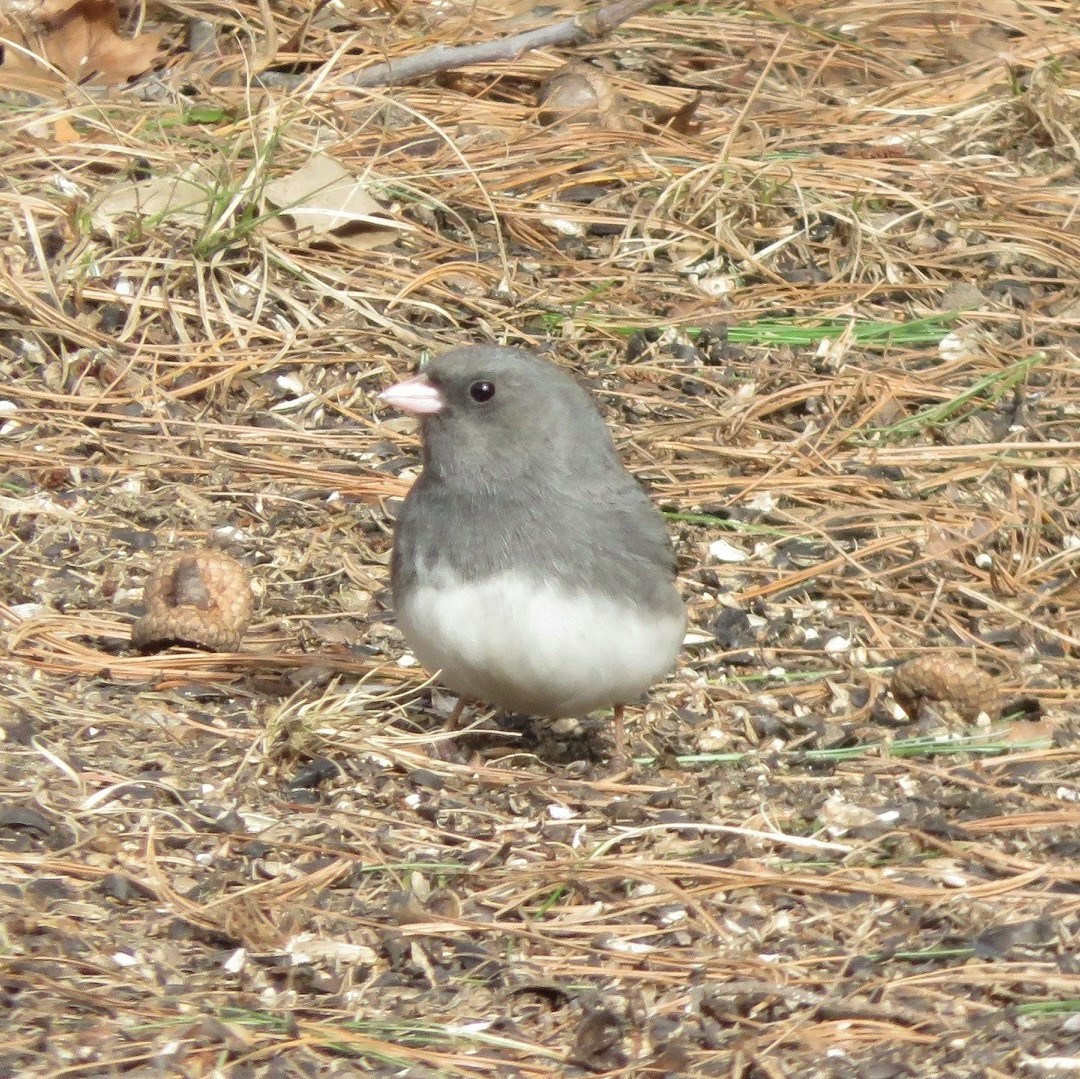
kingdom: Animalia
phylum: Chordata
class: Aves
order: Passeriformes
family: Passerellidae
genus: Junco
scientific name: Junco hyemalis
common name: Dark-eyed junco
